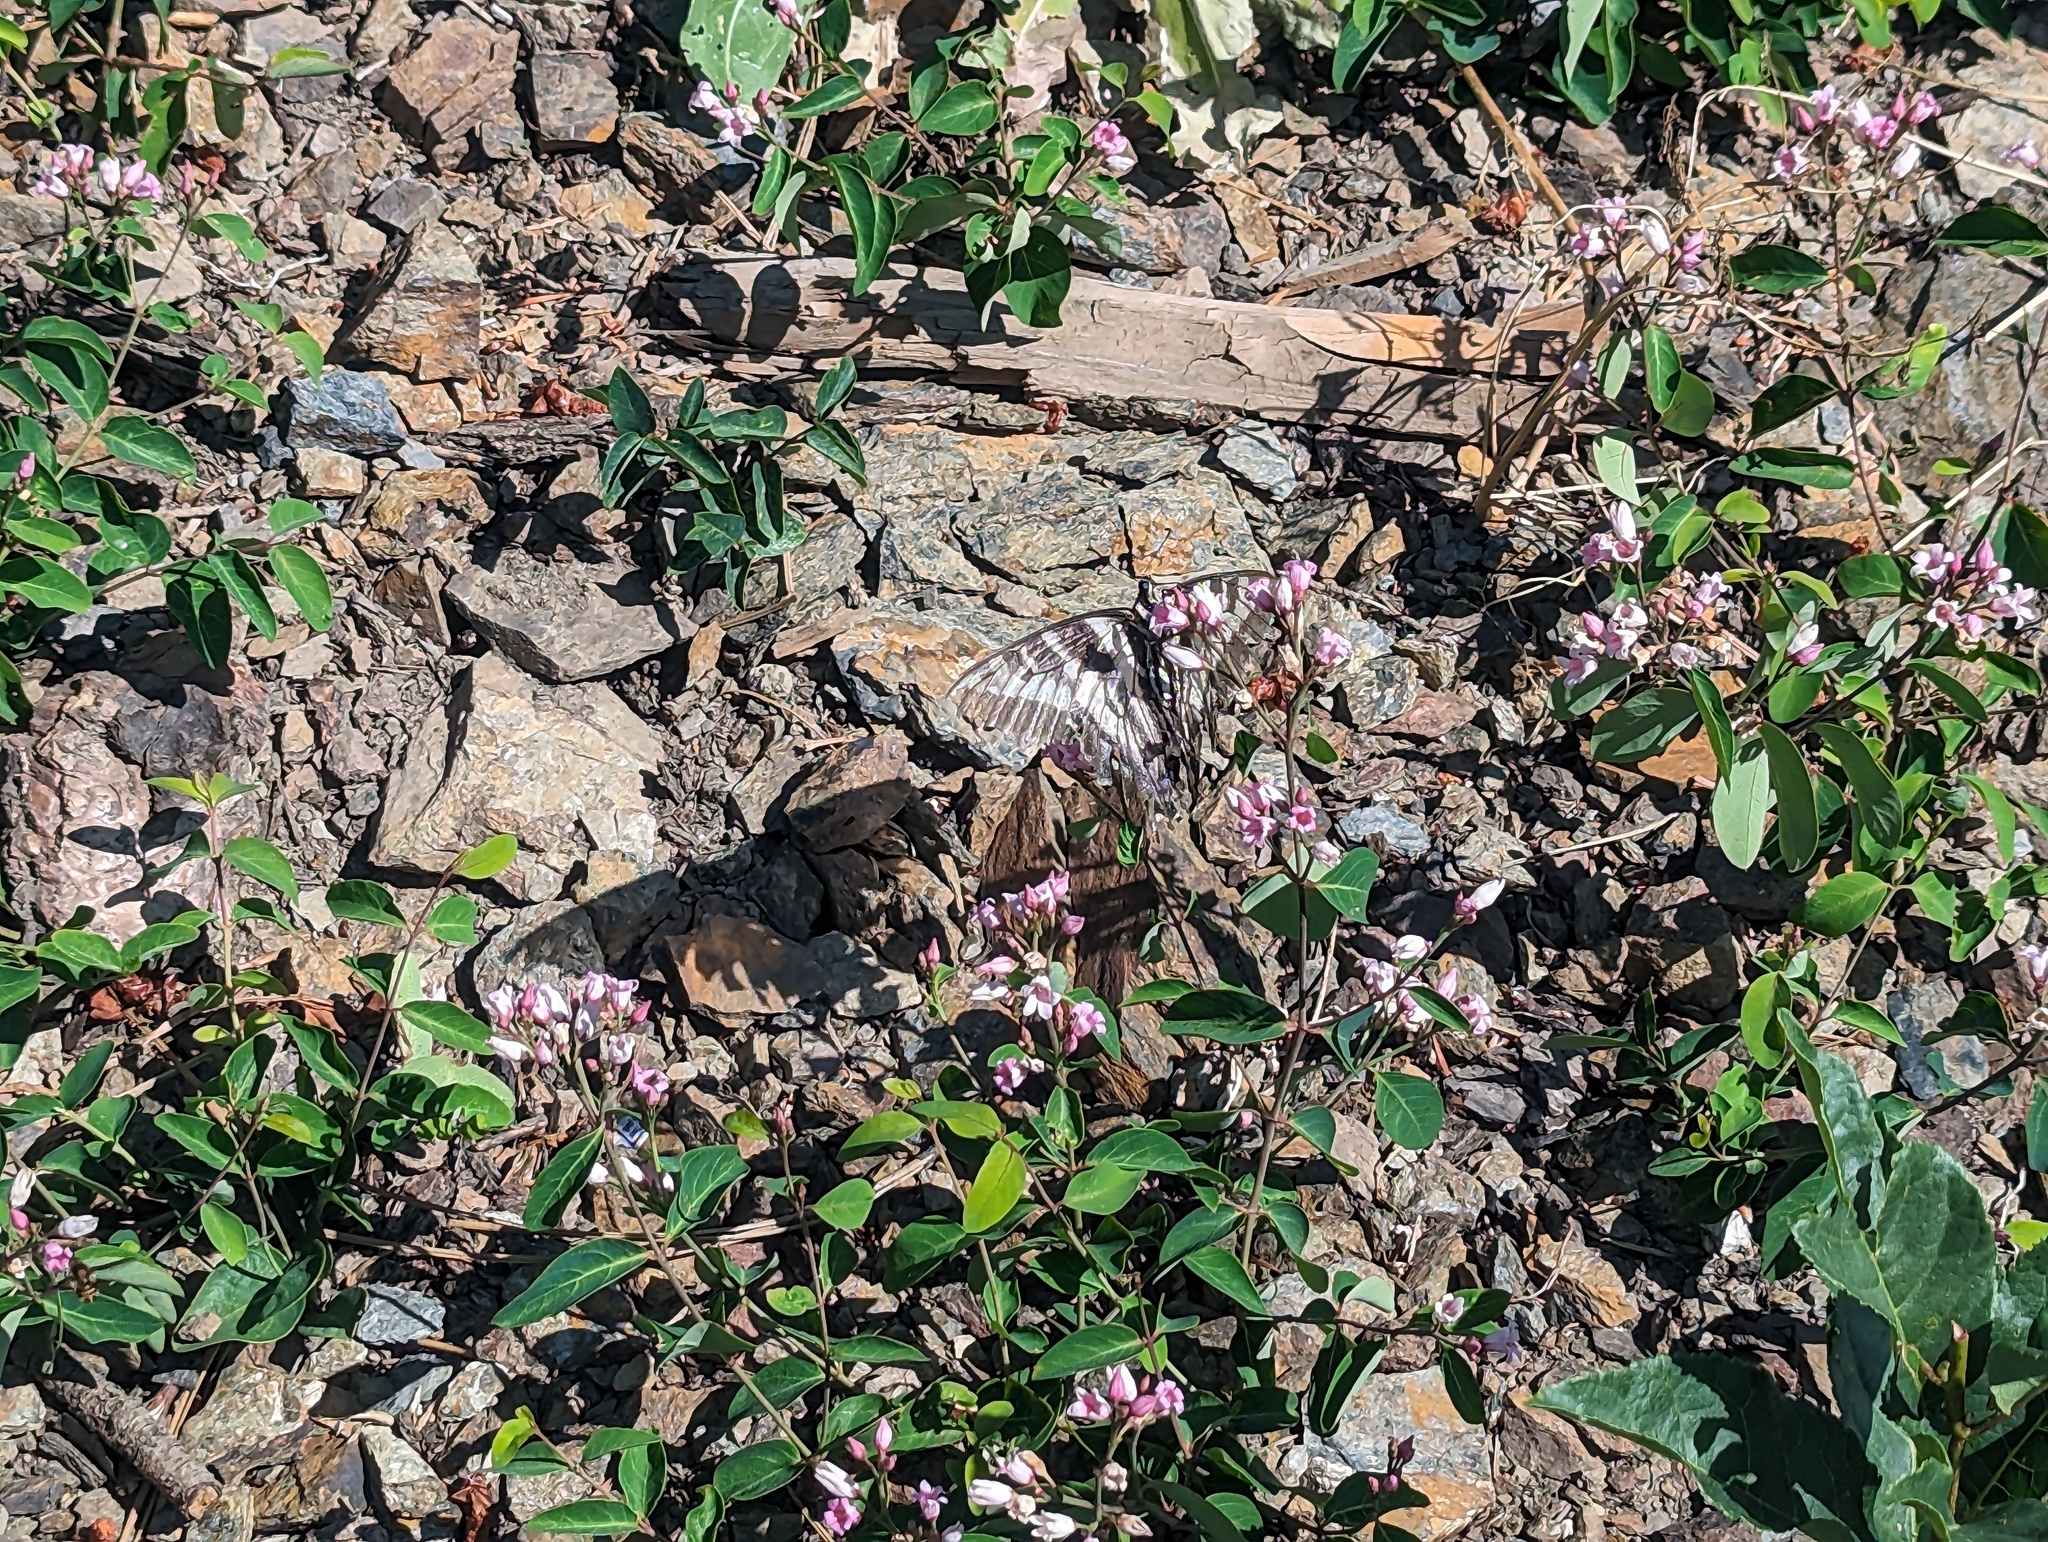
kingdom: Animalia
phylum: Arthropoda
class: Insecta
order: Lepidoptera
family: Papilionidae
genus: Papilio
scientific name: Papilio eurymedon
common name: Pale tiger swallowtail
